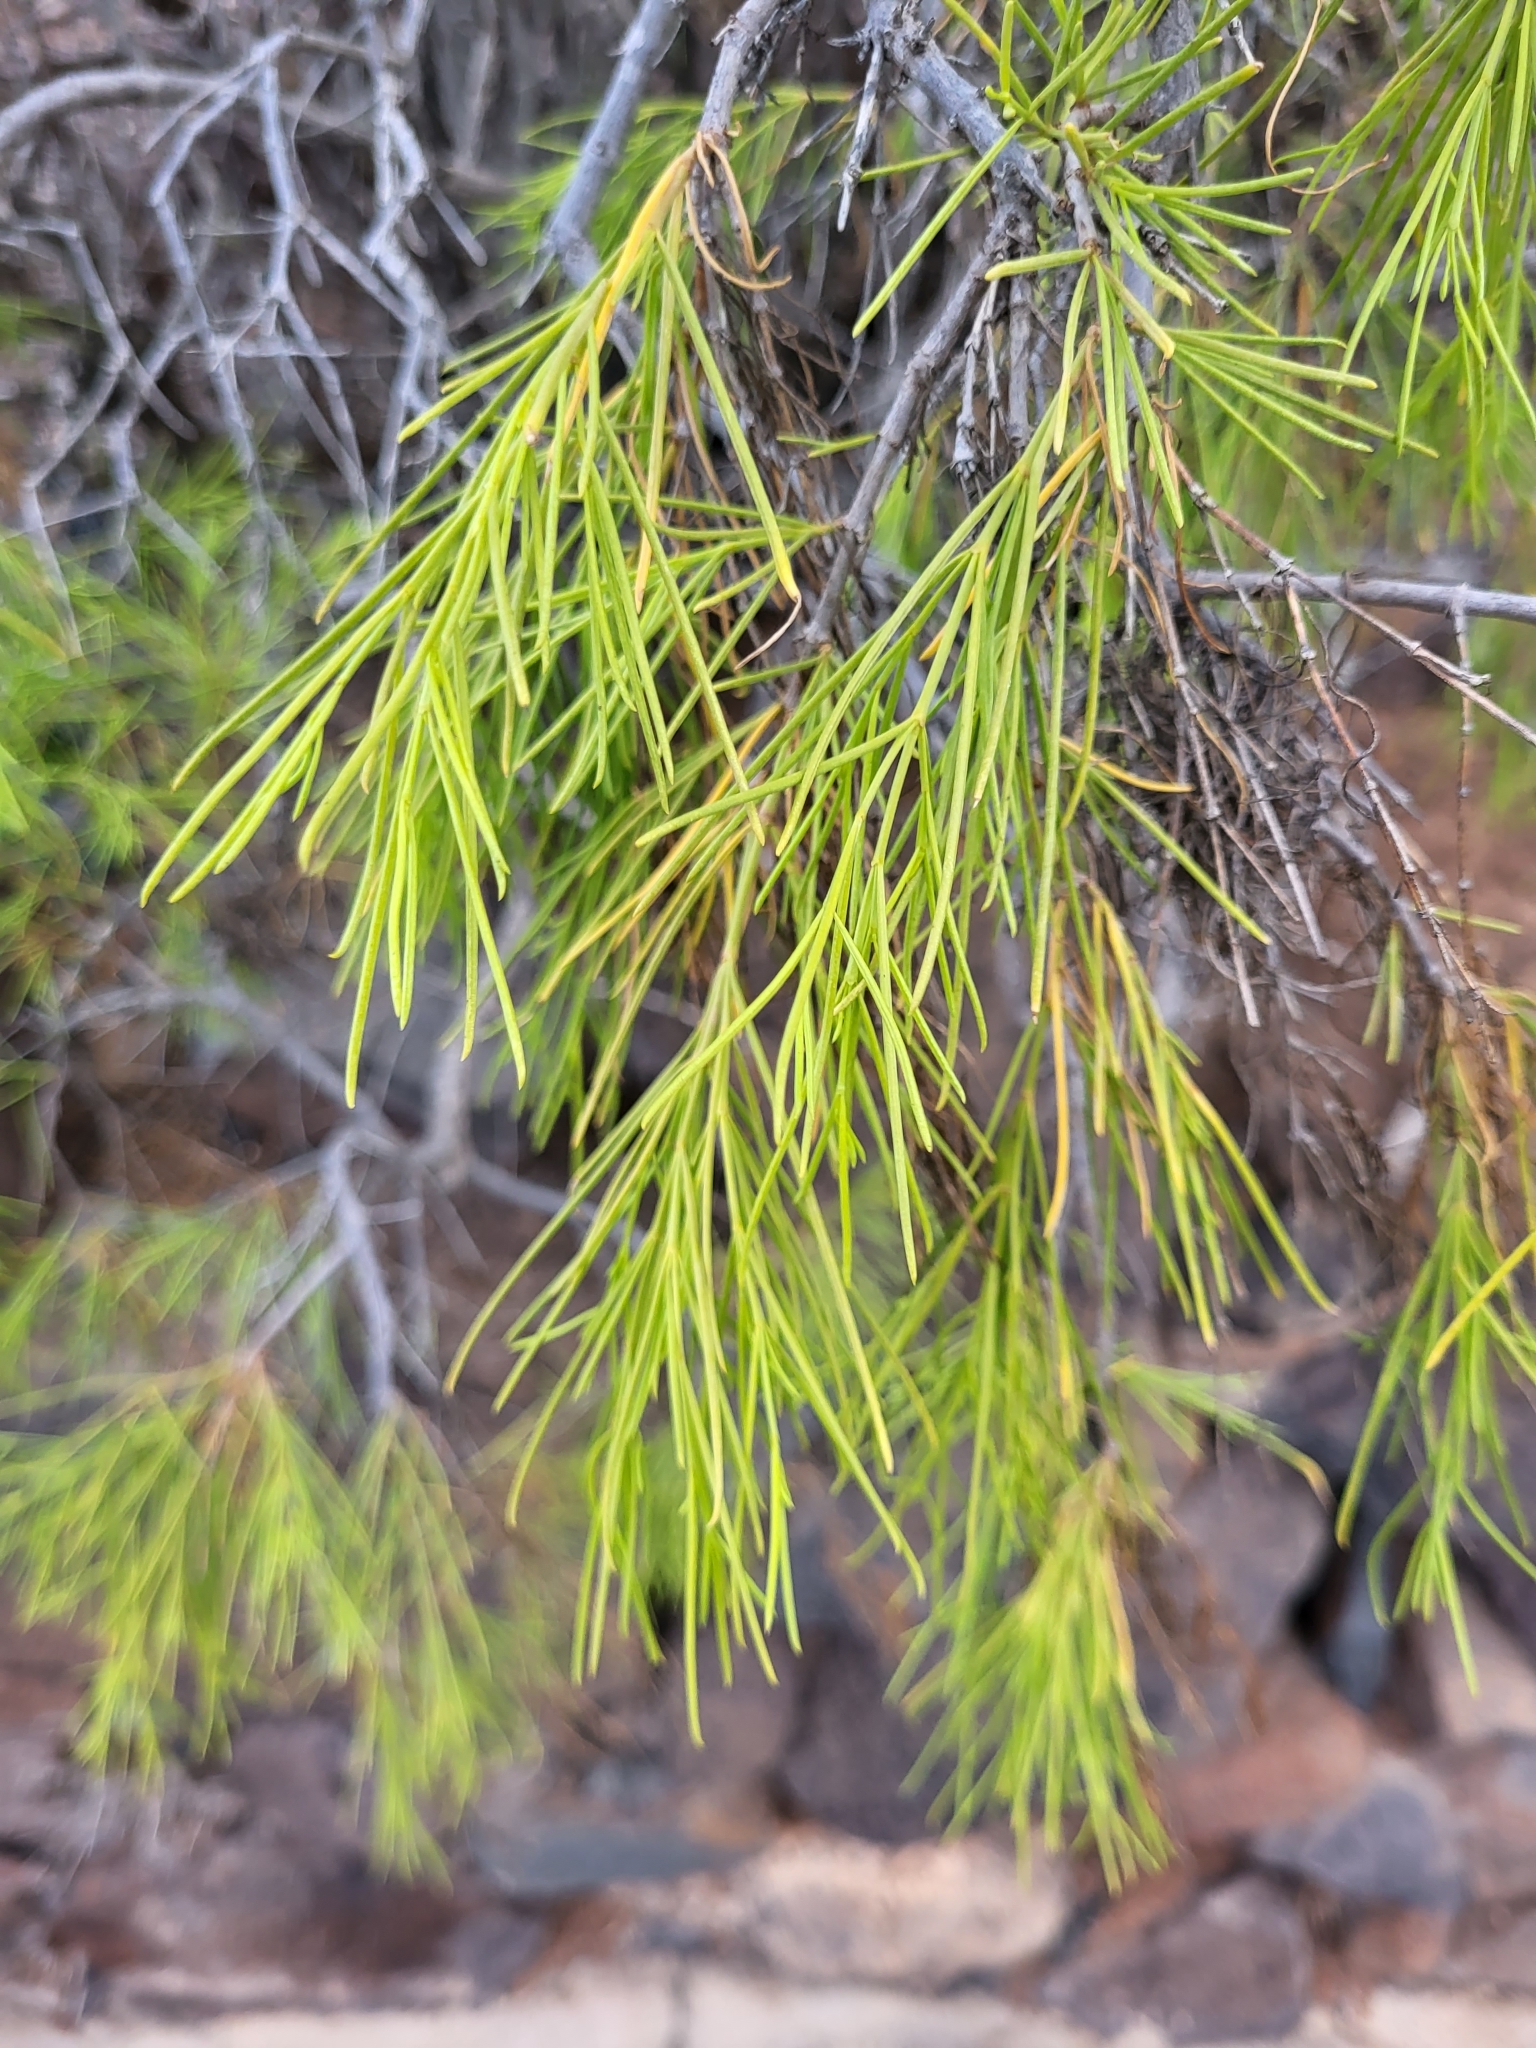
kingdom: Plantae
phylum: Tracheophyta
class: Magnoliopsida
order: Gentianales
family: Rubiaceae
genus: Plocama
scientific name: Plocama pendula
